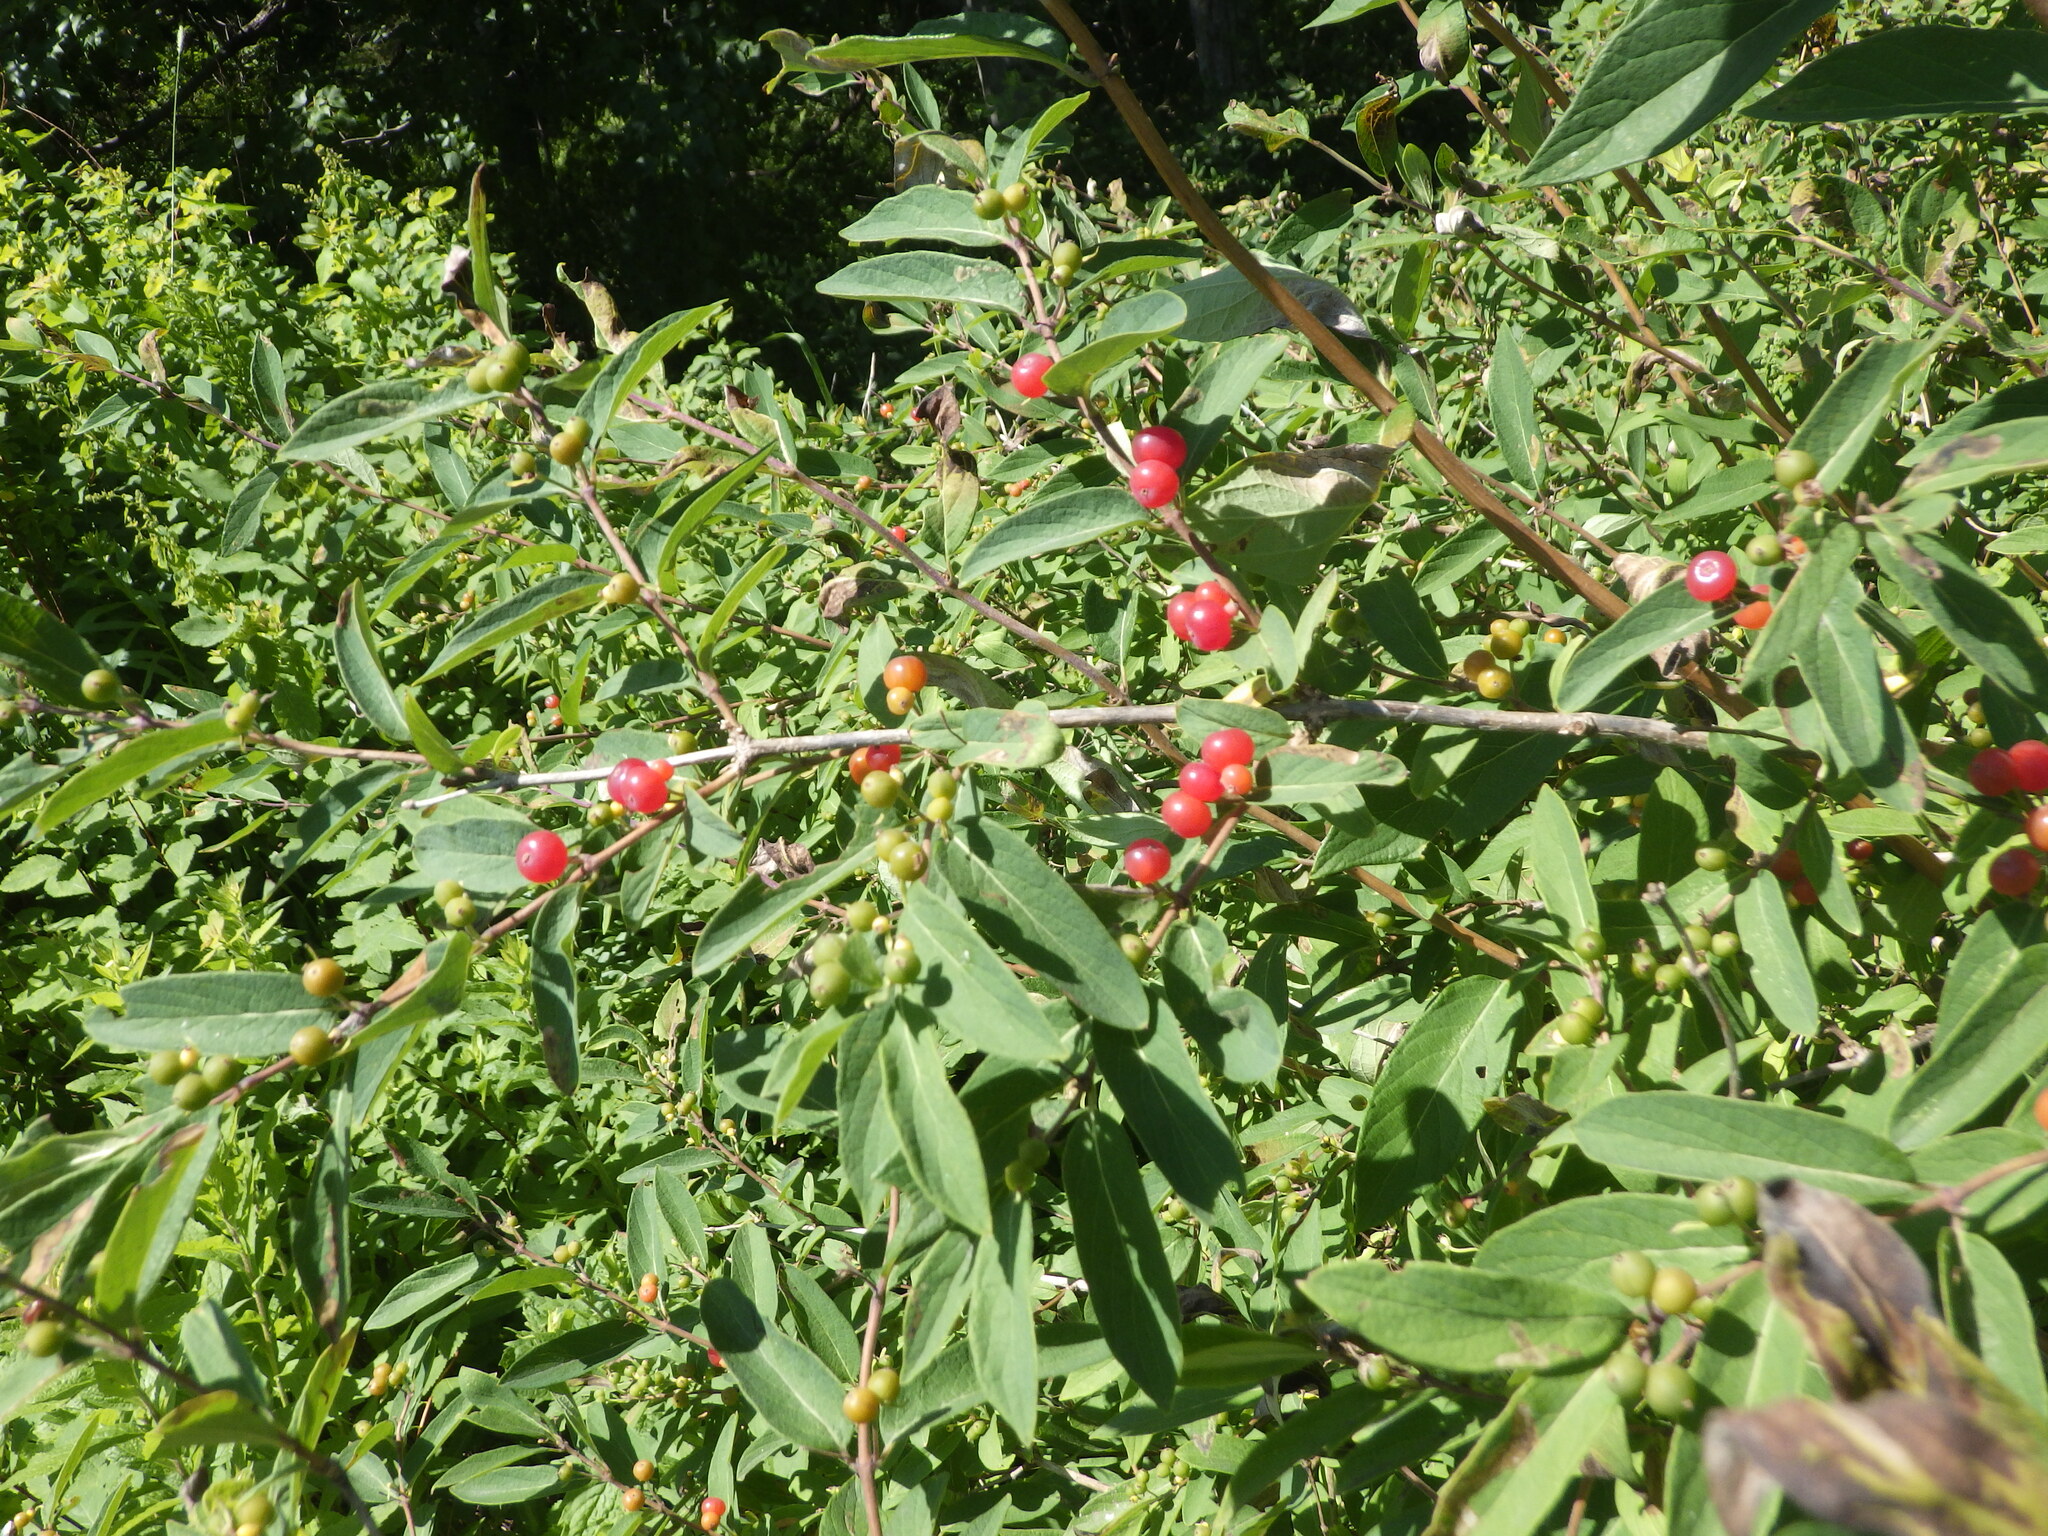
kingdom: Plantae
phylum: Tracheophyta
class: Magnoliopsida
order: Dipsacales
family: Caprifoliaceae
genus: Lonicera
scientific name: Lonicera tatarica
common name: Tatarian honeysuckle
